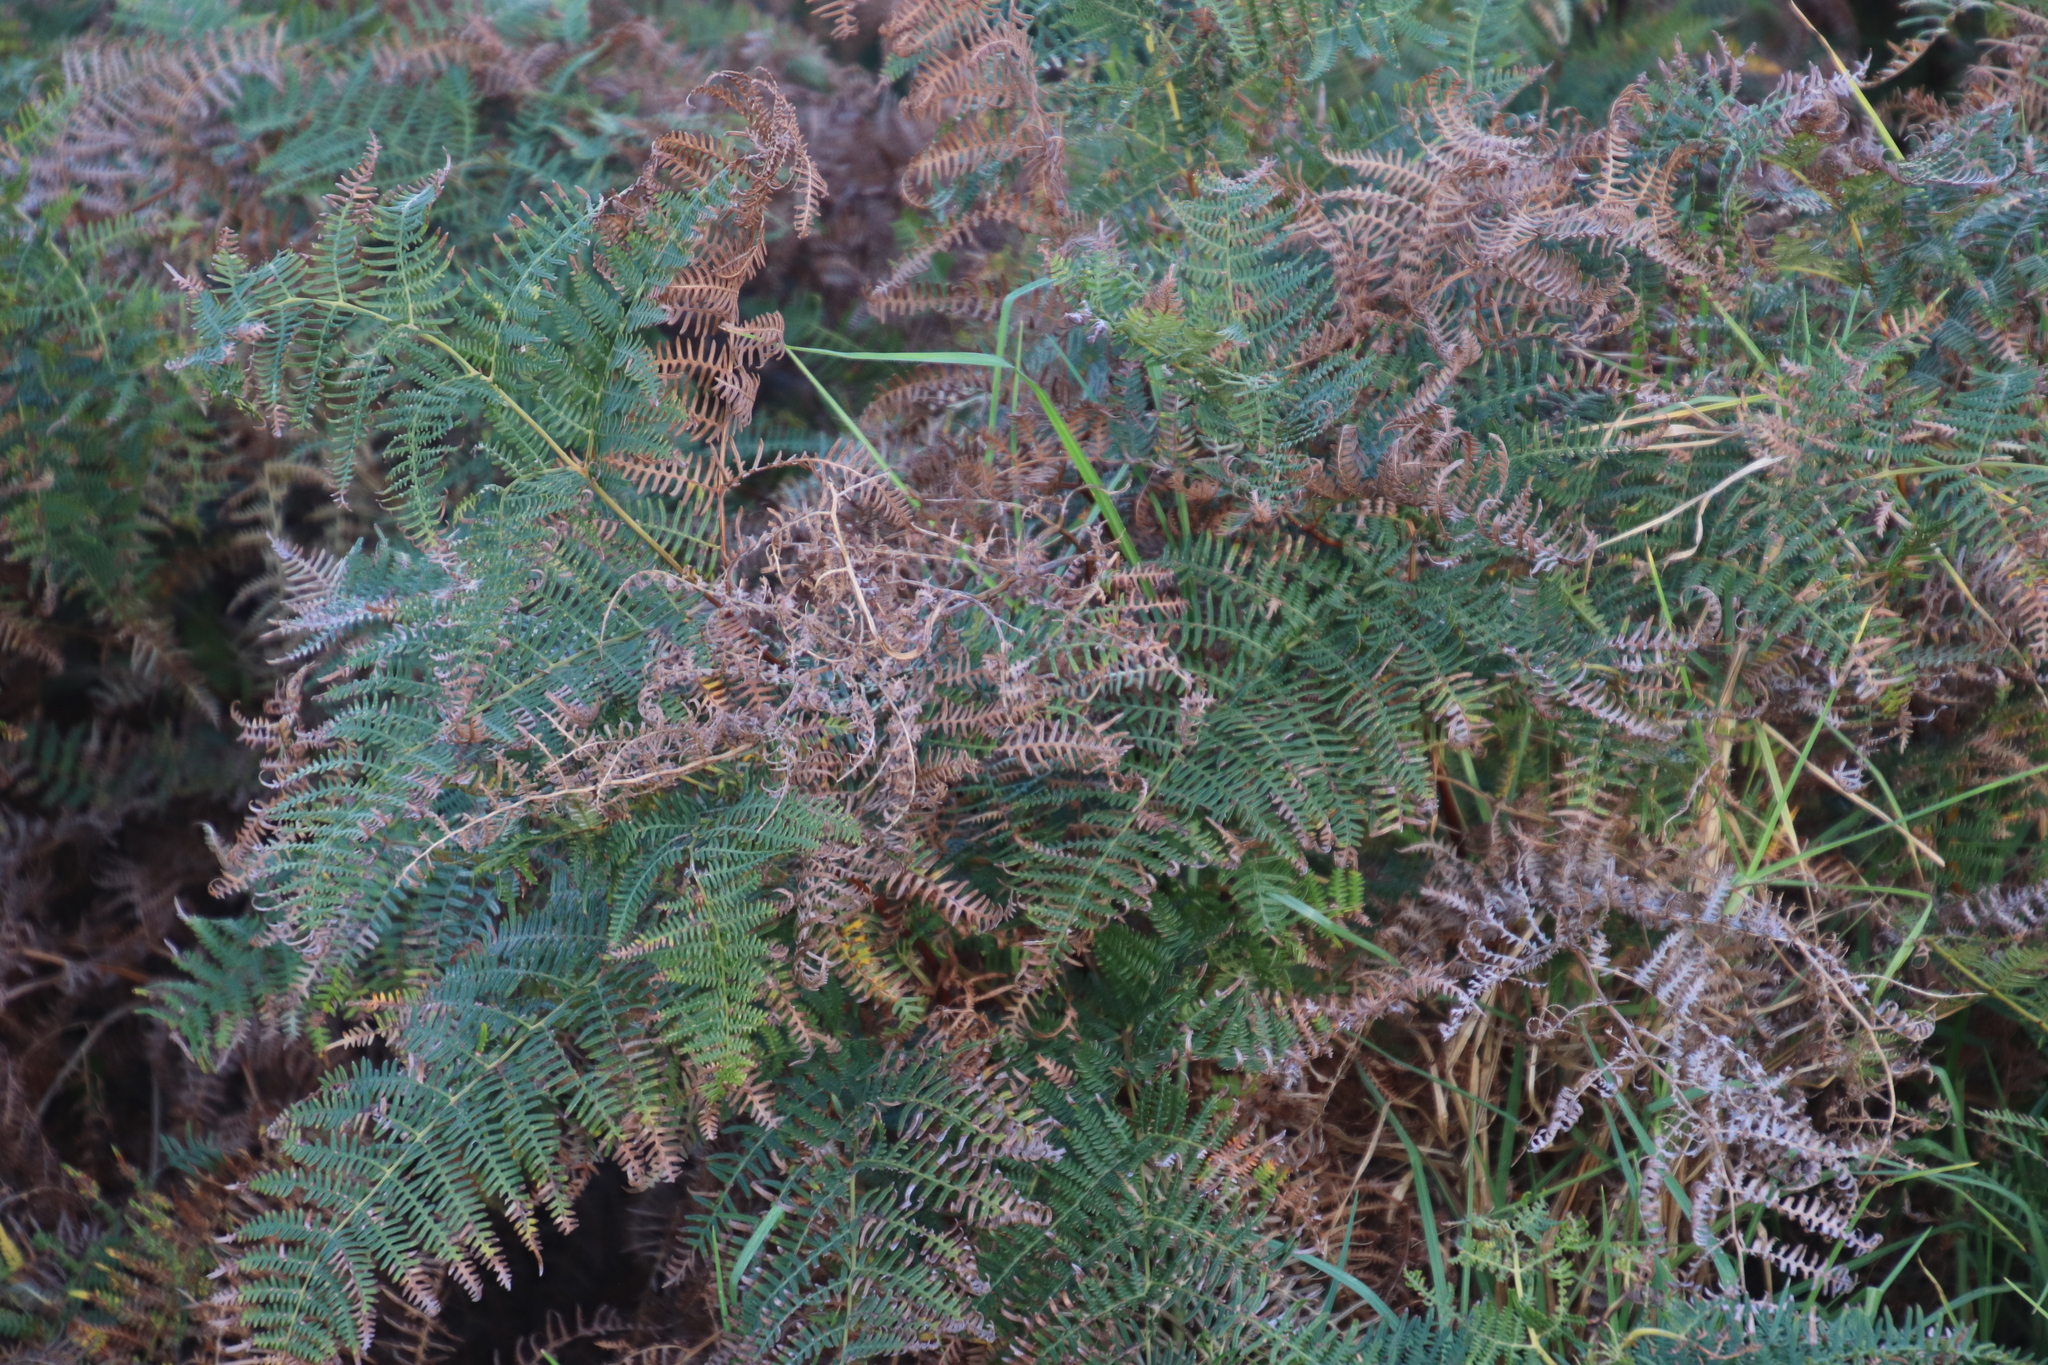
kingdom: Plantae
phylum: Tracheophyta
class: Polypodiopsida
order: Polypodiales
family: Dennstaedtiaceae
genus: Pteridium
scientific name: Pteridium aquilinum
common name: Bracken
